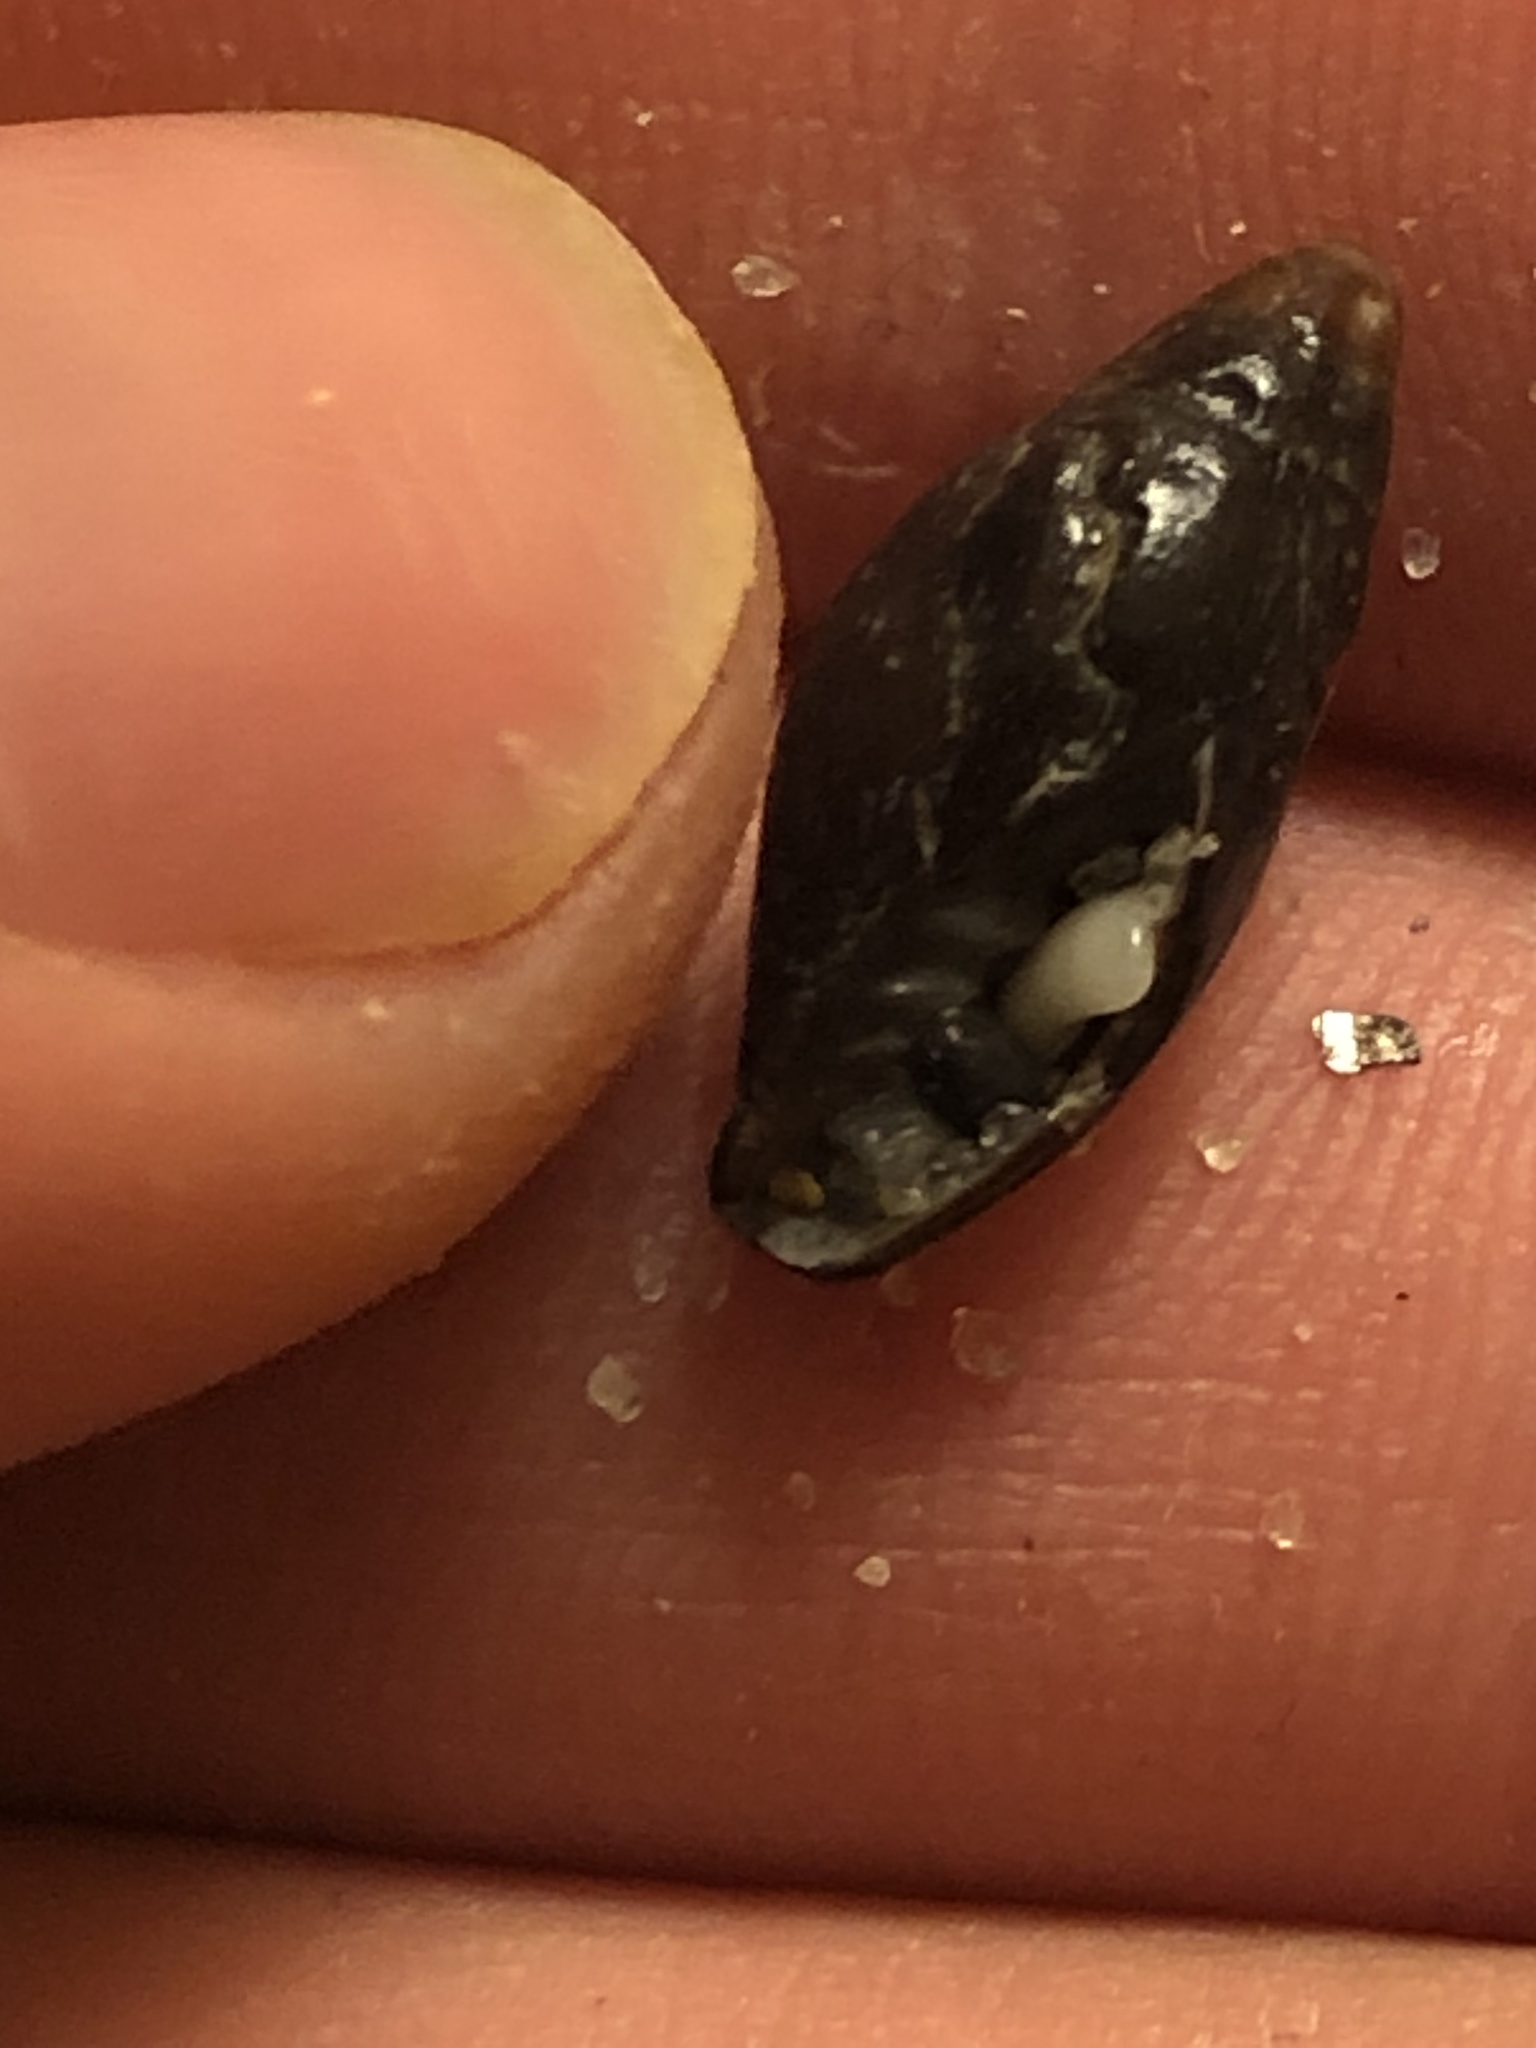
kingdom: Animalia
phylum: Mollusca
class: Gastropoda
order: Neogastropoda
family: Mitridae
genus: Atrimitra
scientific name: Atrimitra idae
